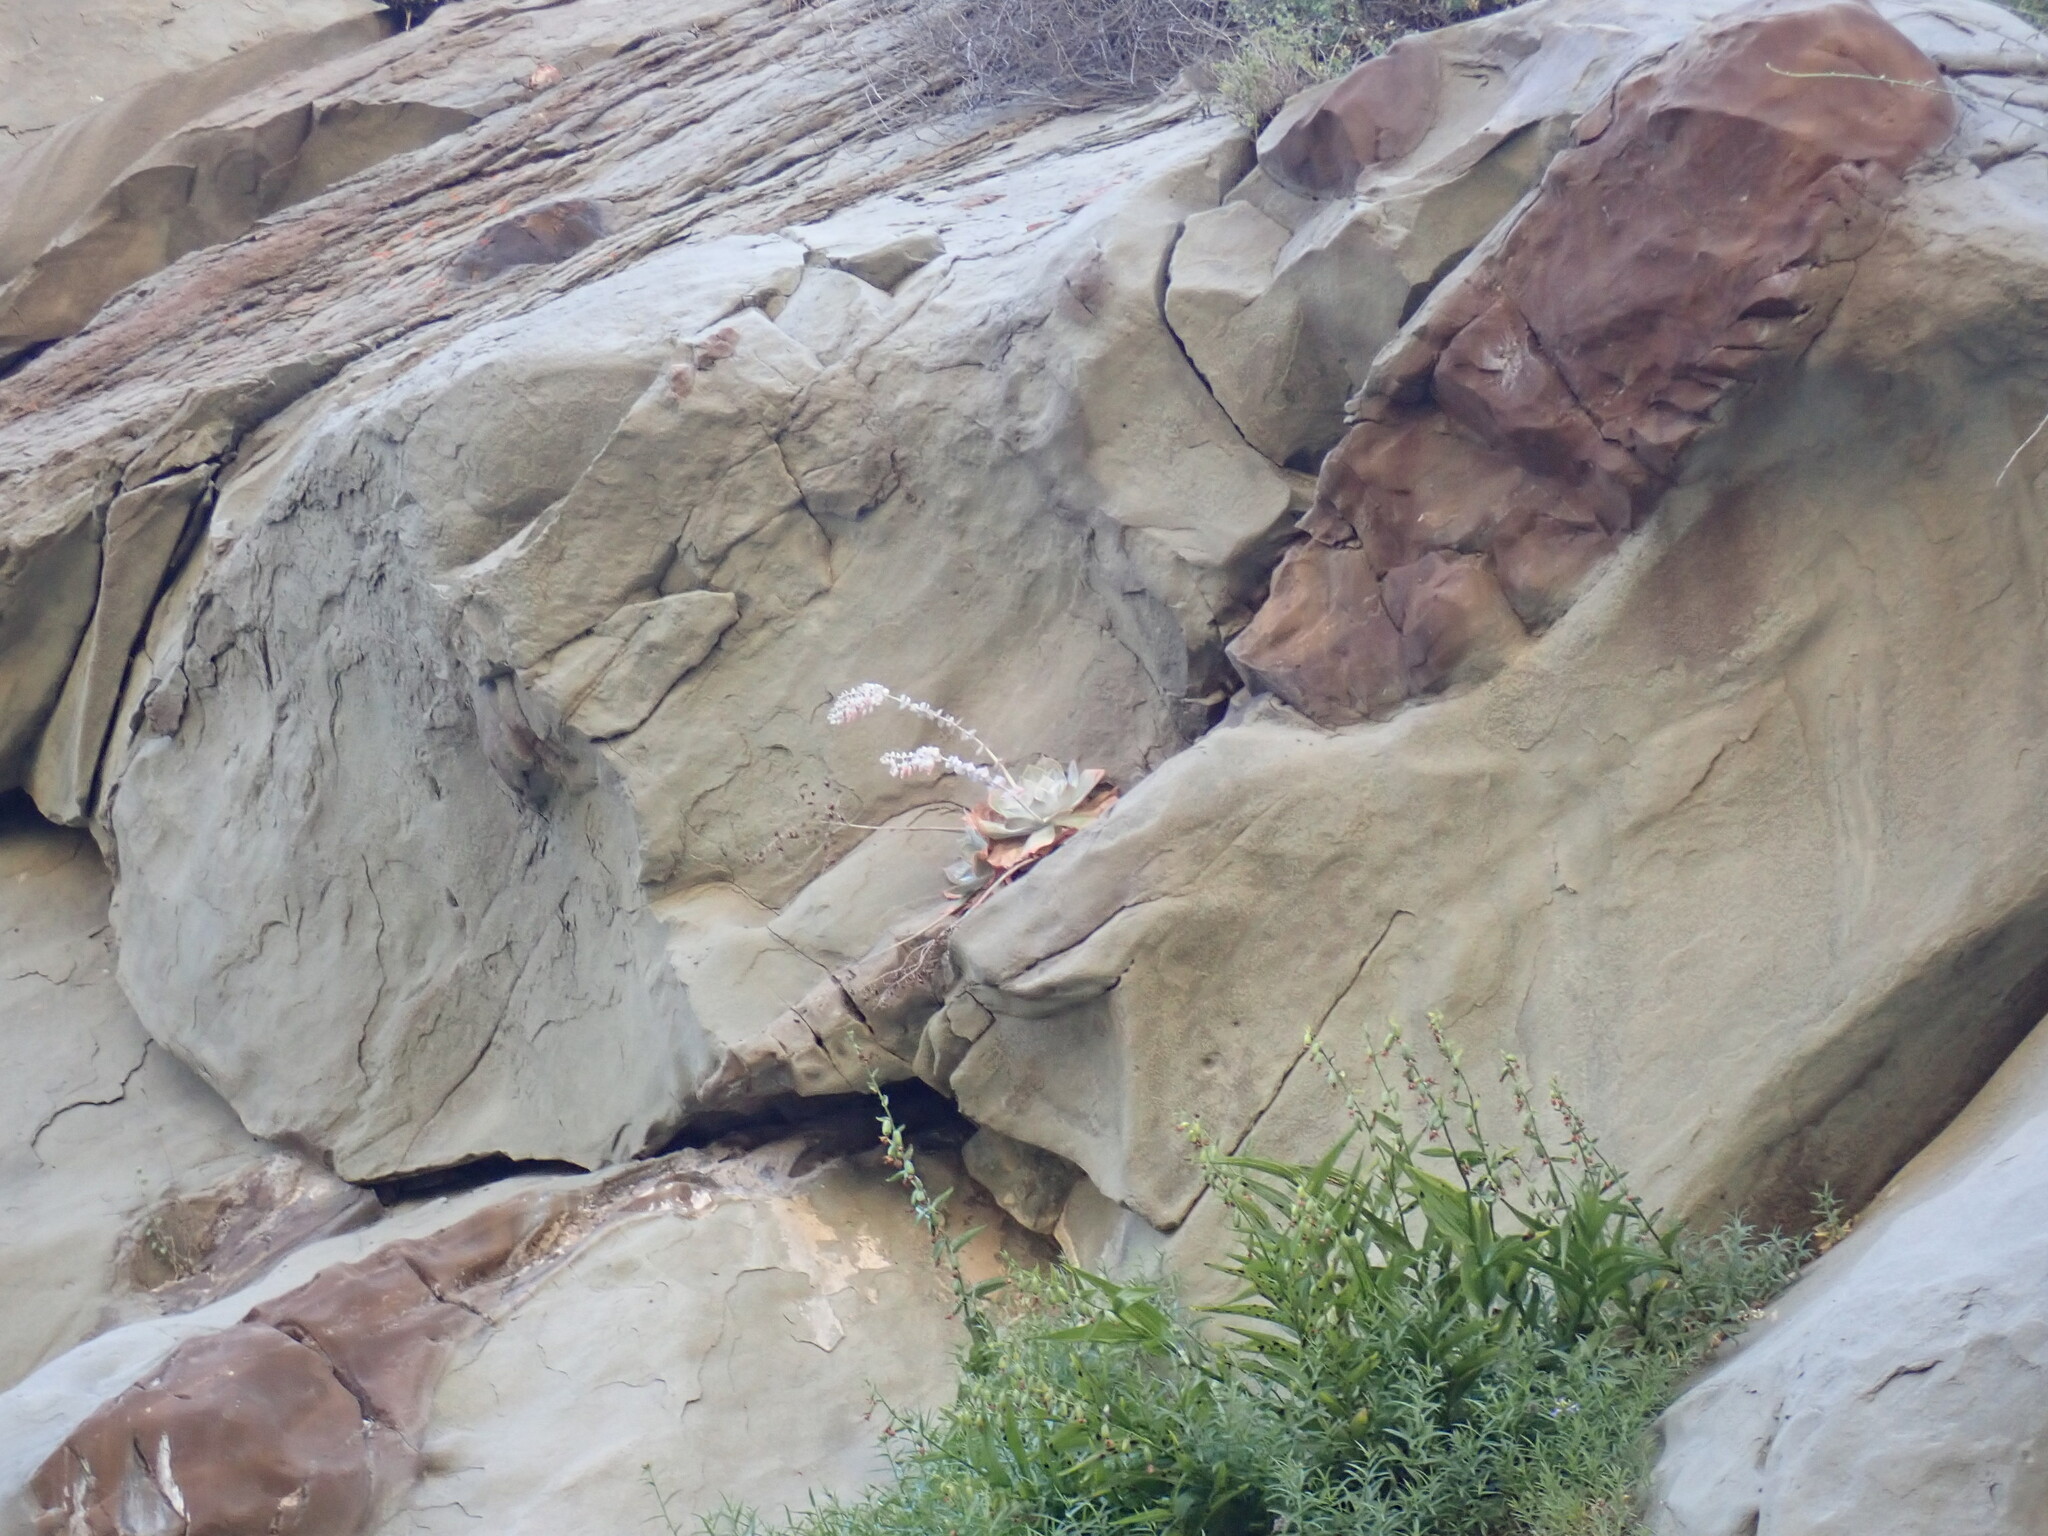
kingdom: Plantae
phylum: Tracheophyta
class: Magnoliopsida
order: Saxifragales
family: Crassulaceae
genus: Dudleya
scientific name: Dudleya pulverulenta
